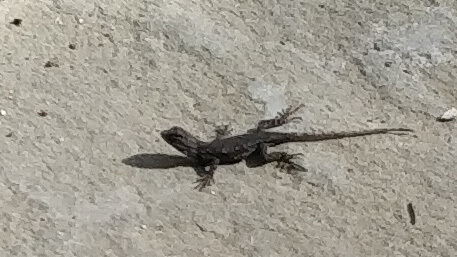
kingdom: Animalia
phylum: Chordata
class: Squamata
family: Phrynosomatidae
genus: Sceloporus
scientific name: Sceloporus undulatus
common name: Eastern fence lizard
